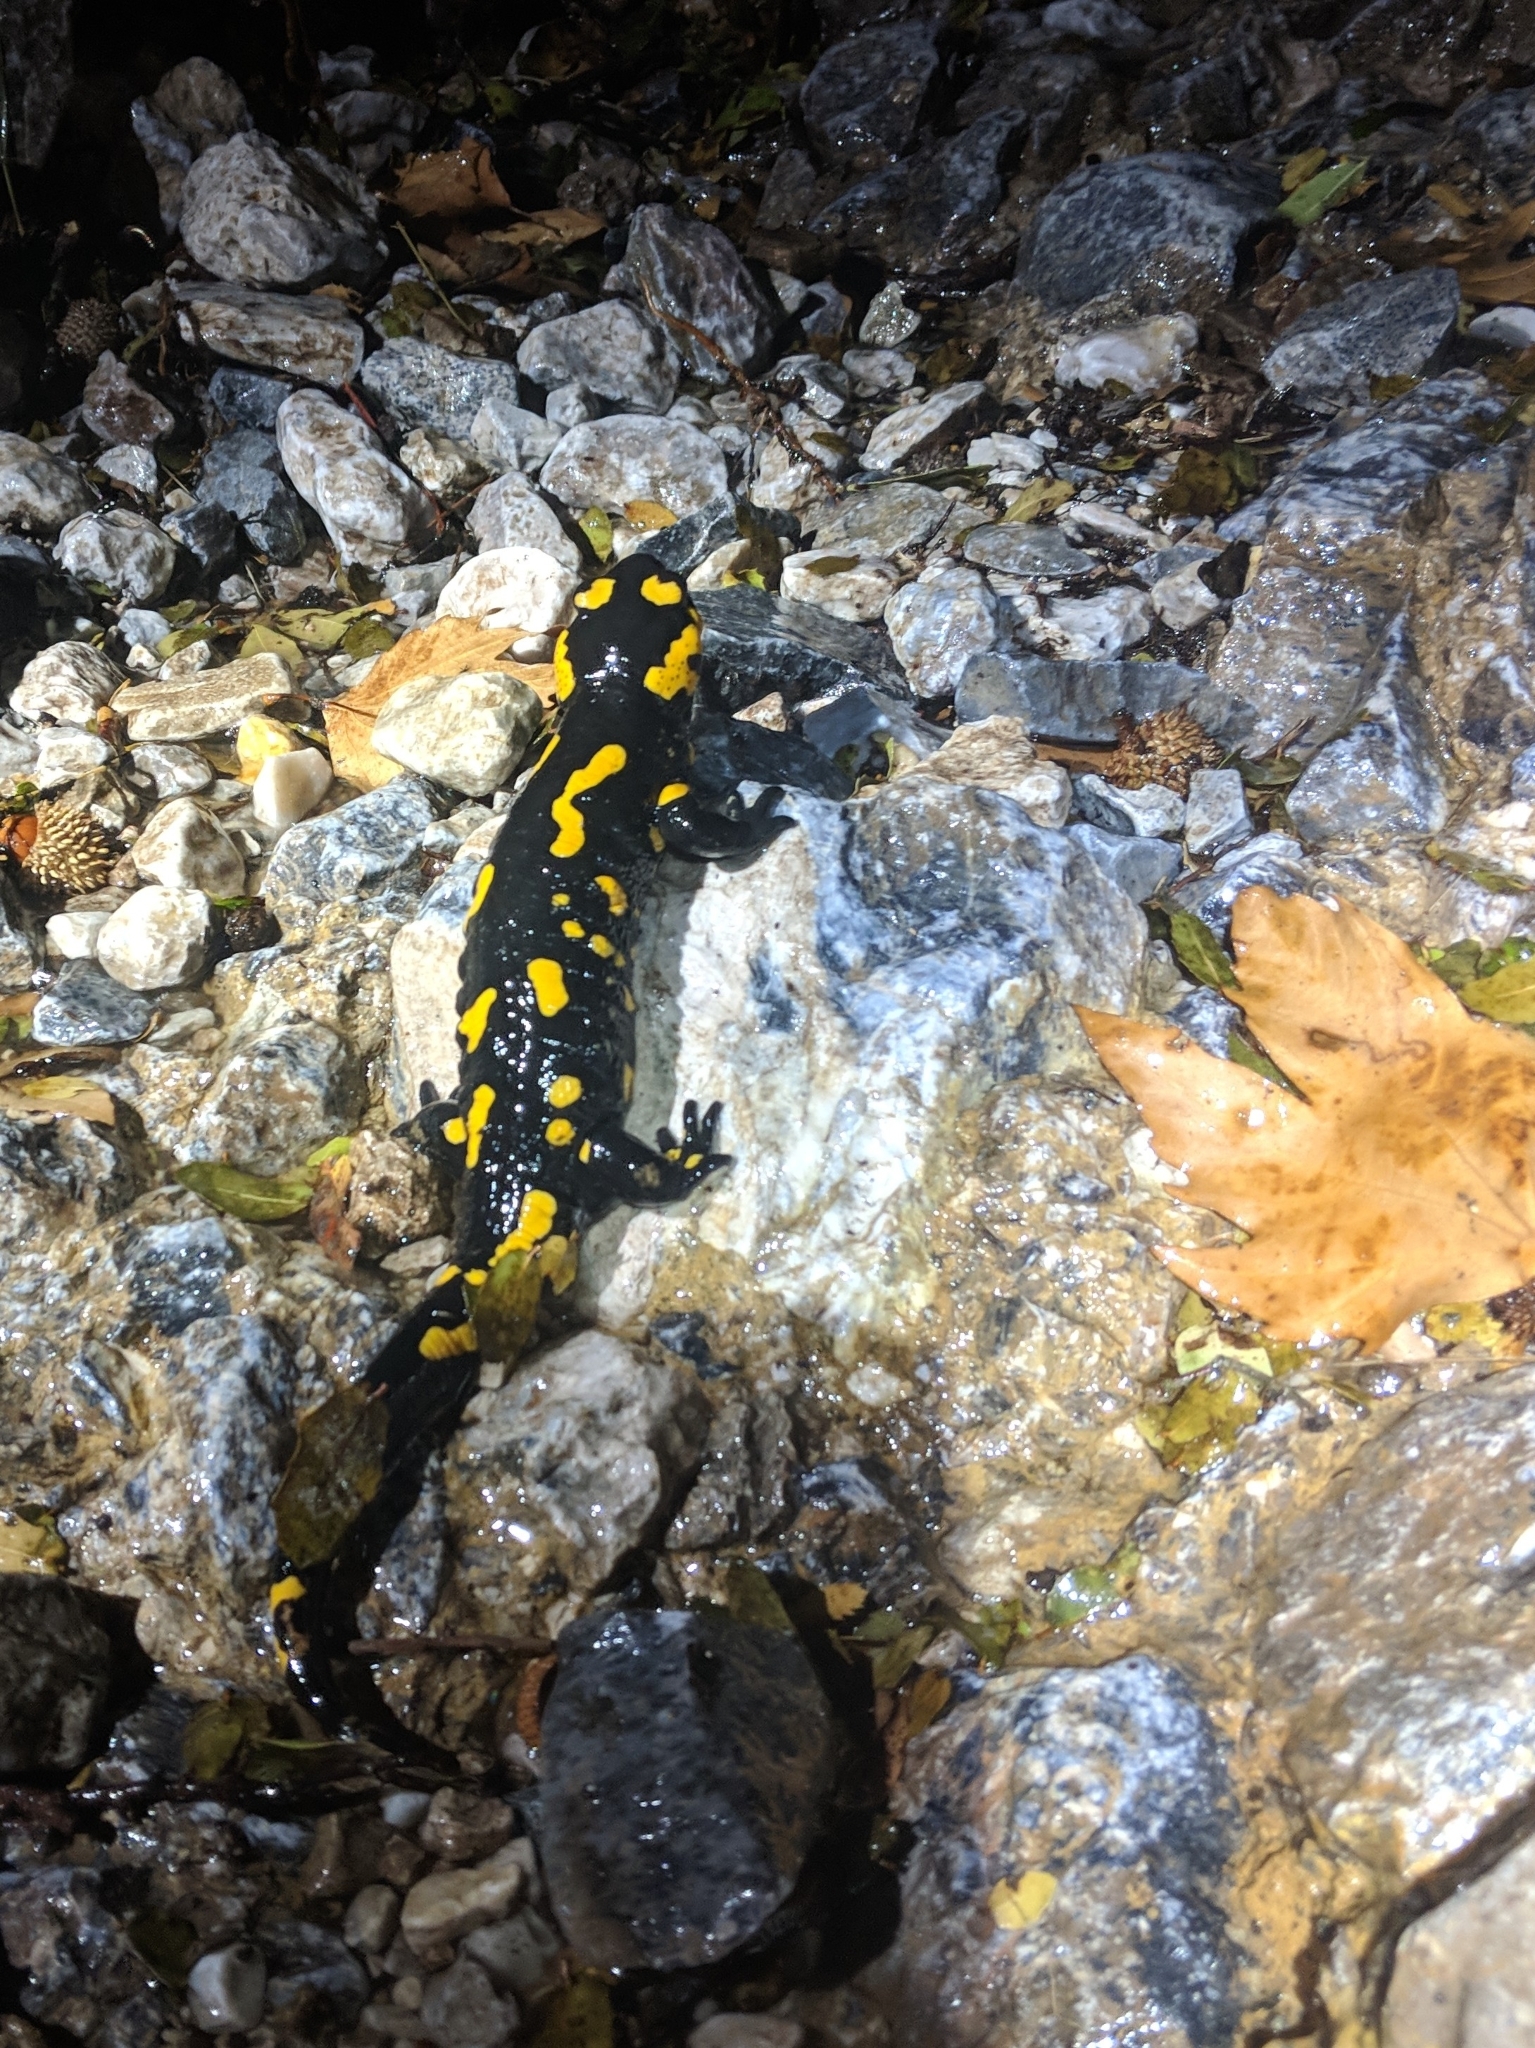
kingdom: Animalia
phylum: Chordata
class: Amphibia
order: Caudata
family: Salamandridae
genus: Salamandra
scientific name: Salamandra salamandra
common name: Fire salamander
